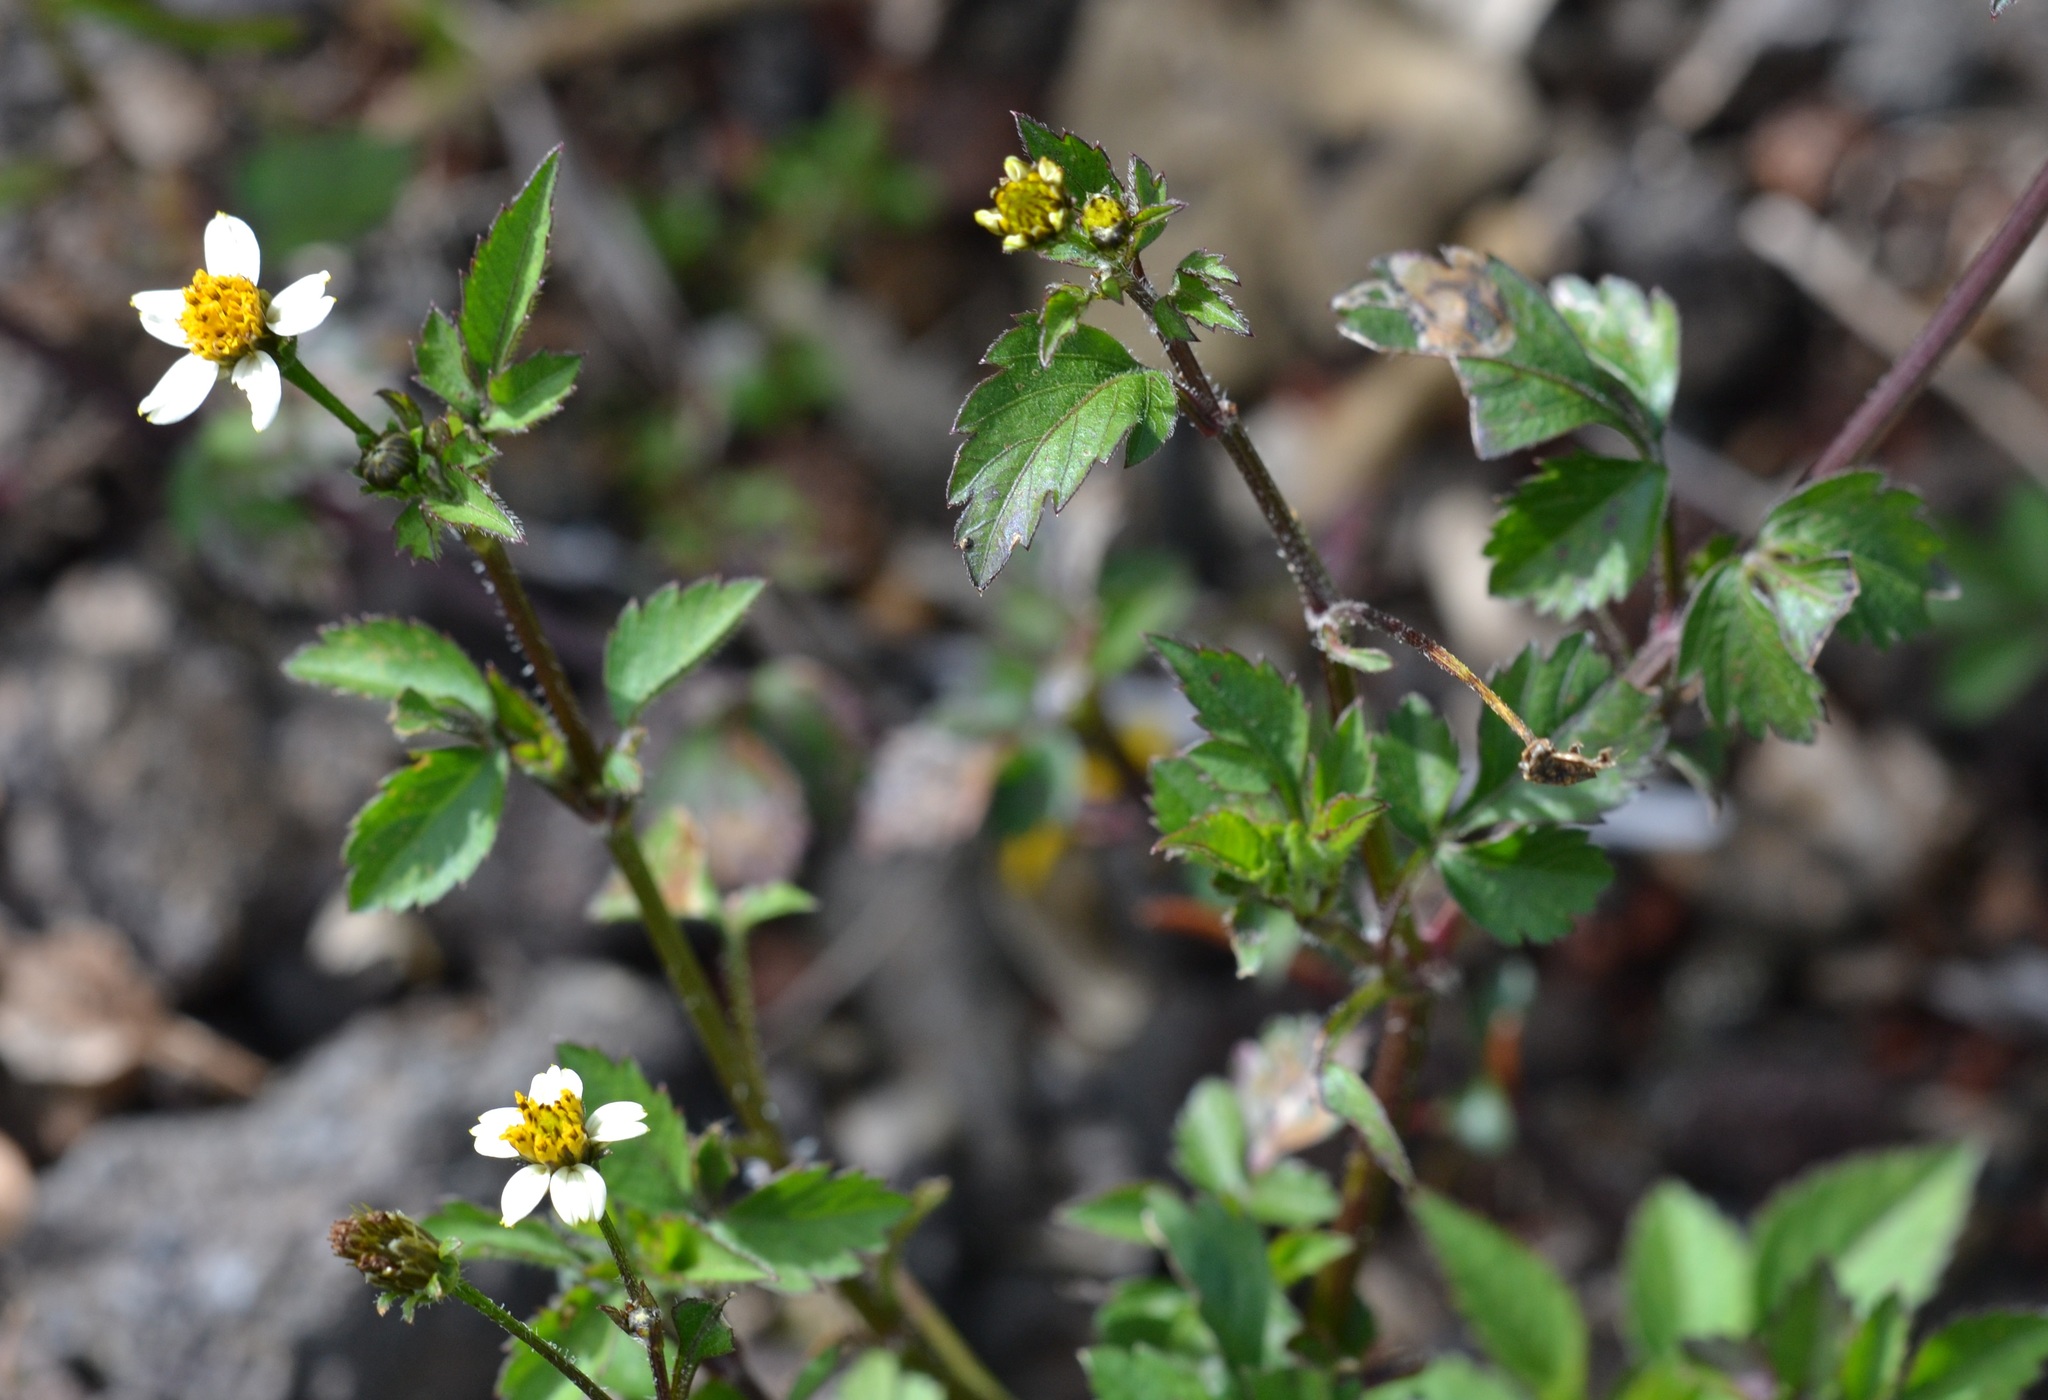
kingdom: Plantae
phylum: Tracheophyta
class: Magnoliopsida
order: Asterales
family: Asteraceae
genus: Bidens
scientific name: Bidens alba
